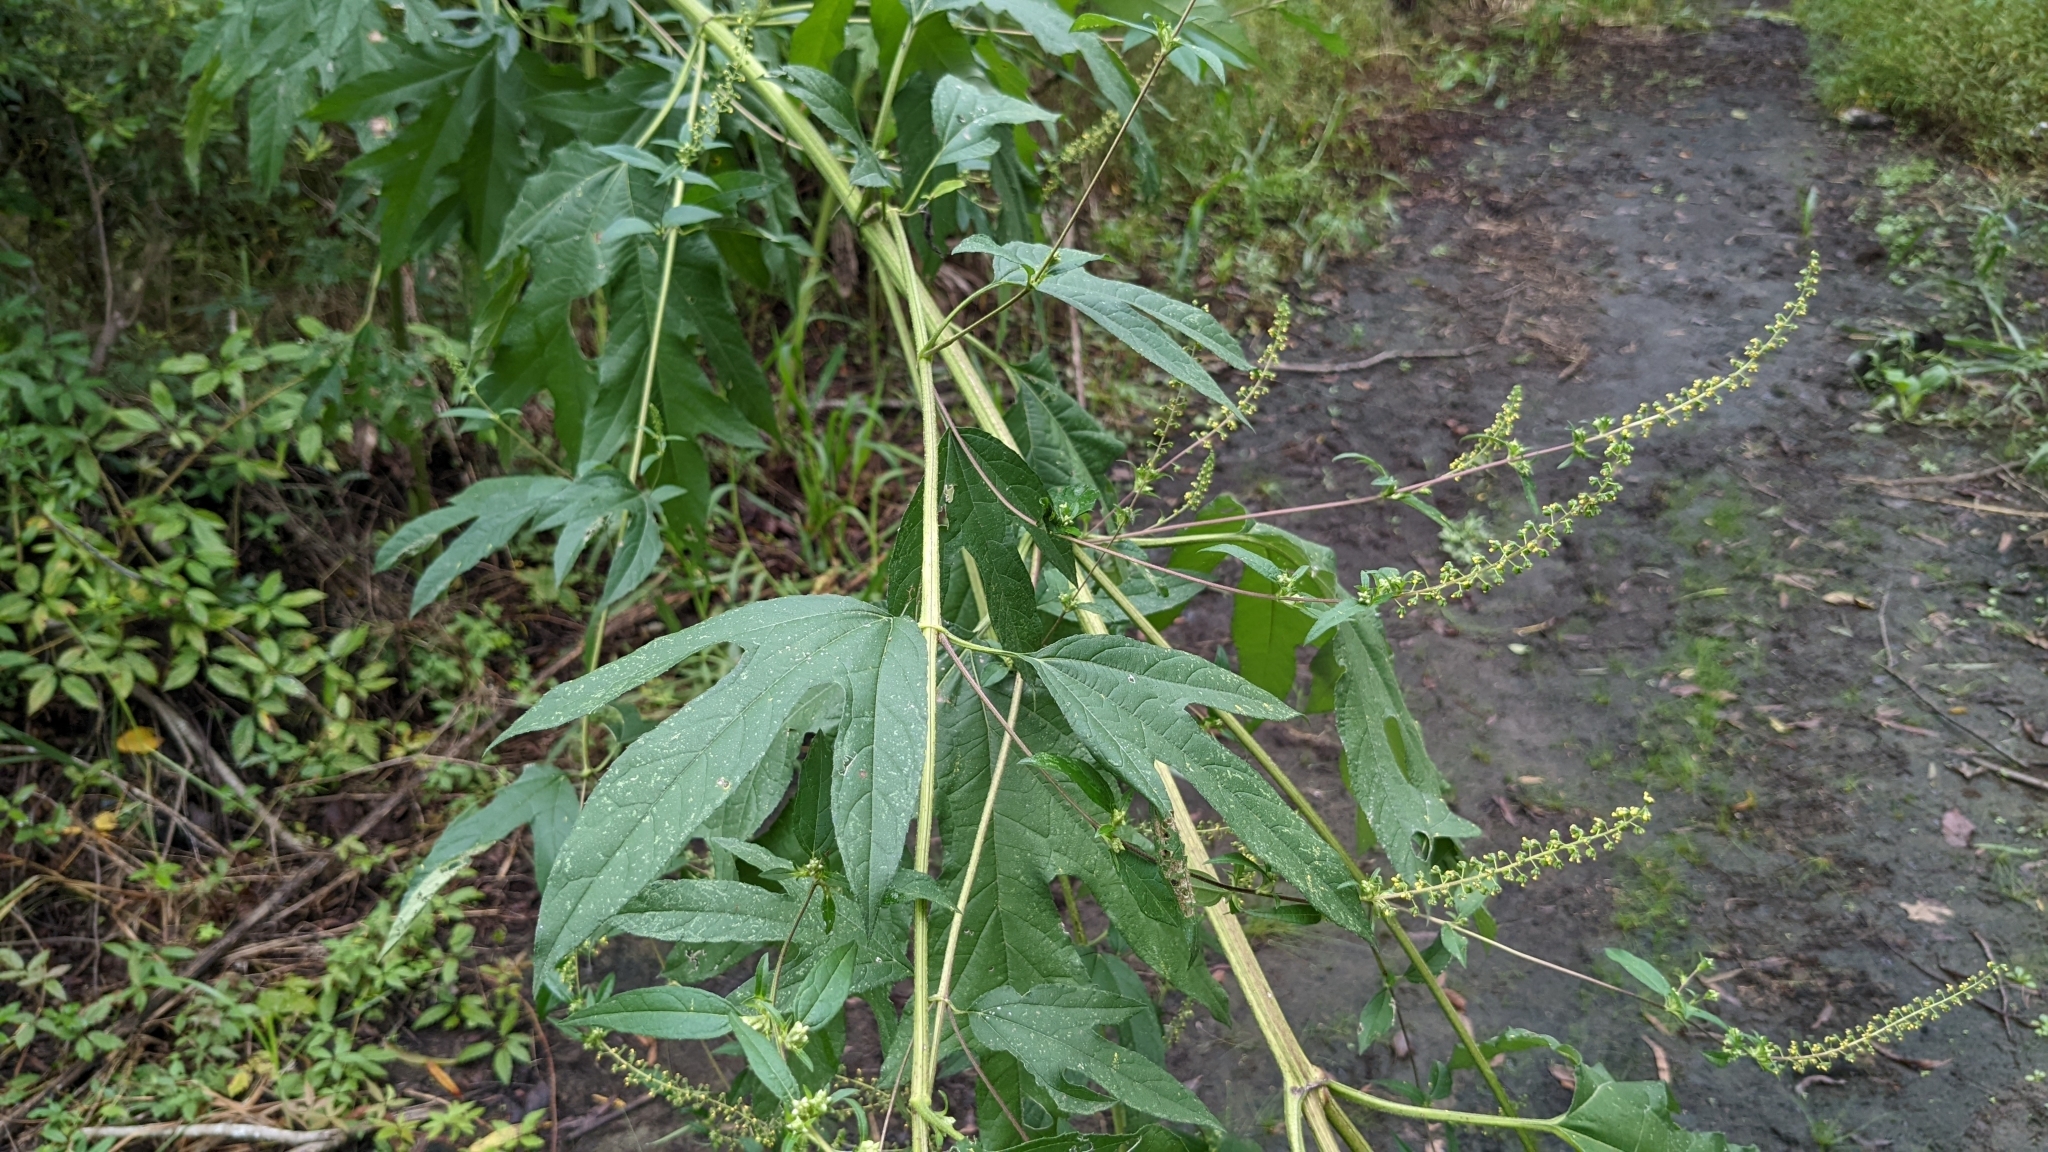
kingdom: Plantae
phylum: Tracheophyta
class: Magnoliopsida
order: Asterales
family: Asteraceae
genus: Ambrosia
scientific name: Ambrosia trifida
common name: Giant ragweed
